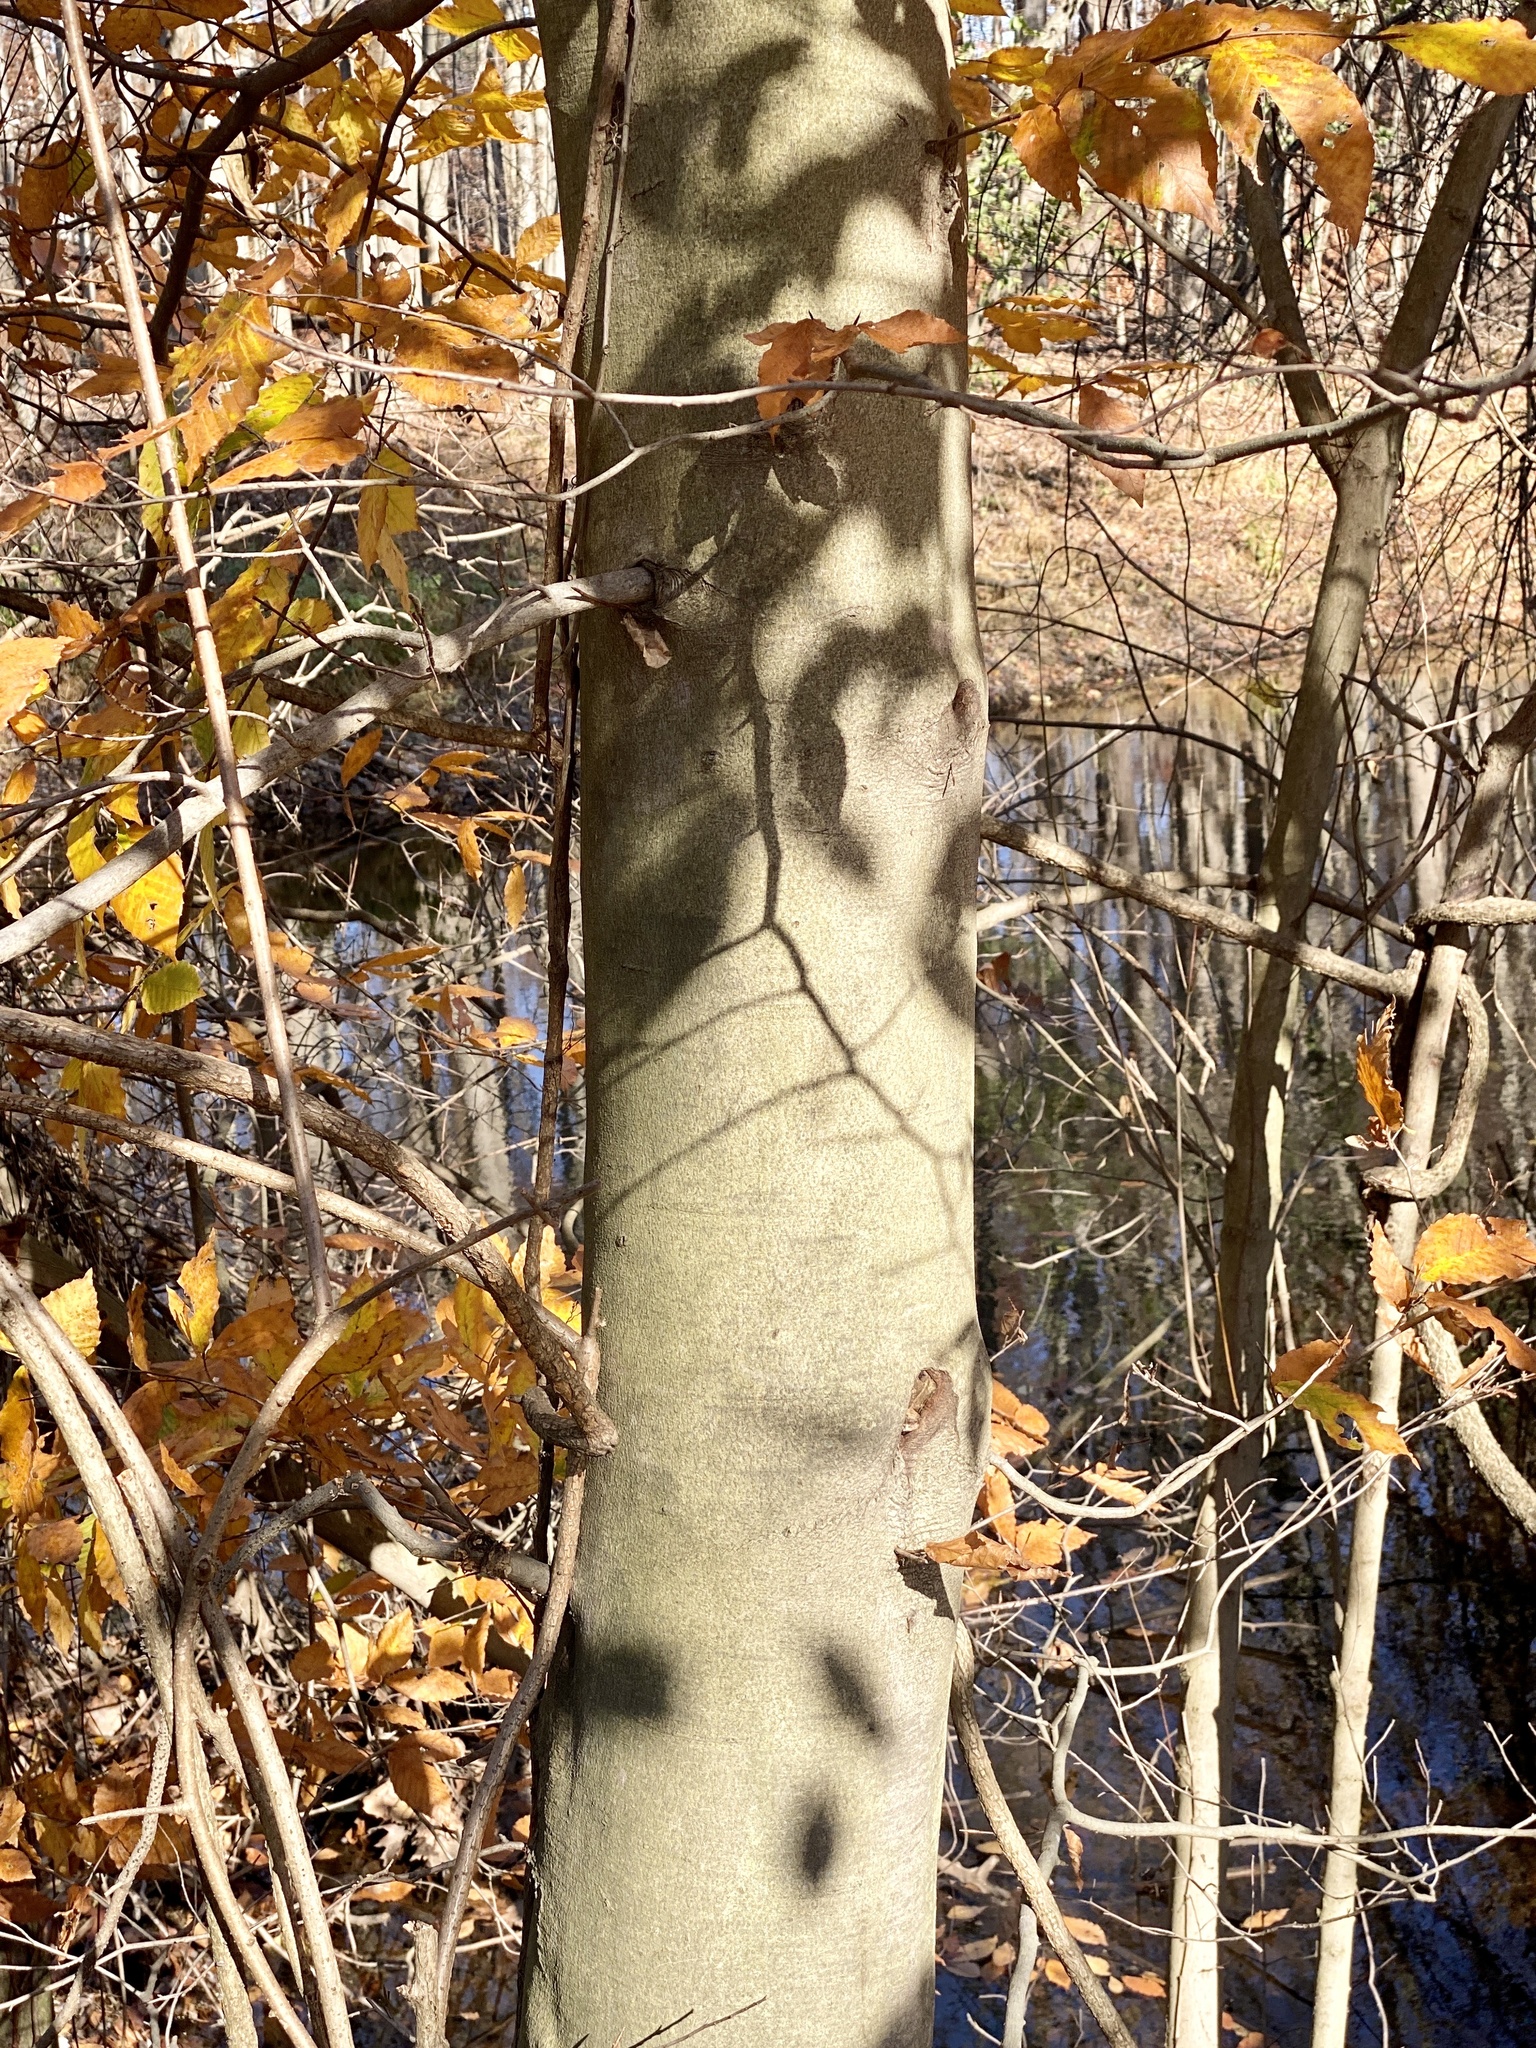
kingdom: Plantae
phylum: Tracheophyta
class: Magnoliopsida
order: Fagales
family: Fagaceae
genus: Fagus
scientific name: Fagus grandifolia
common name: American beech
